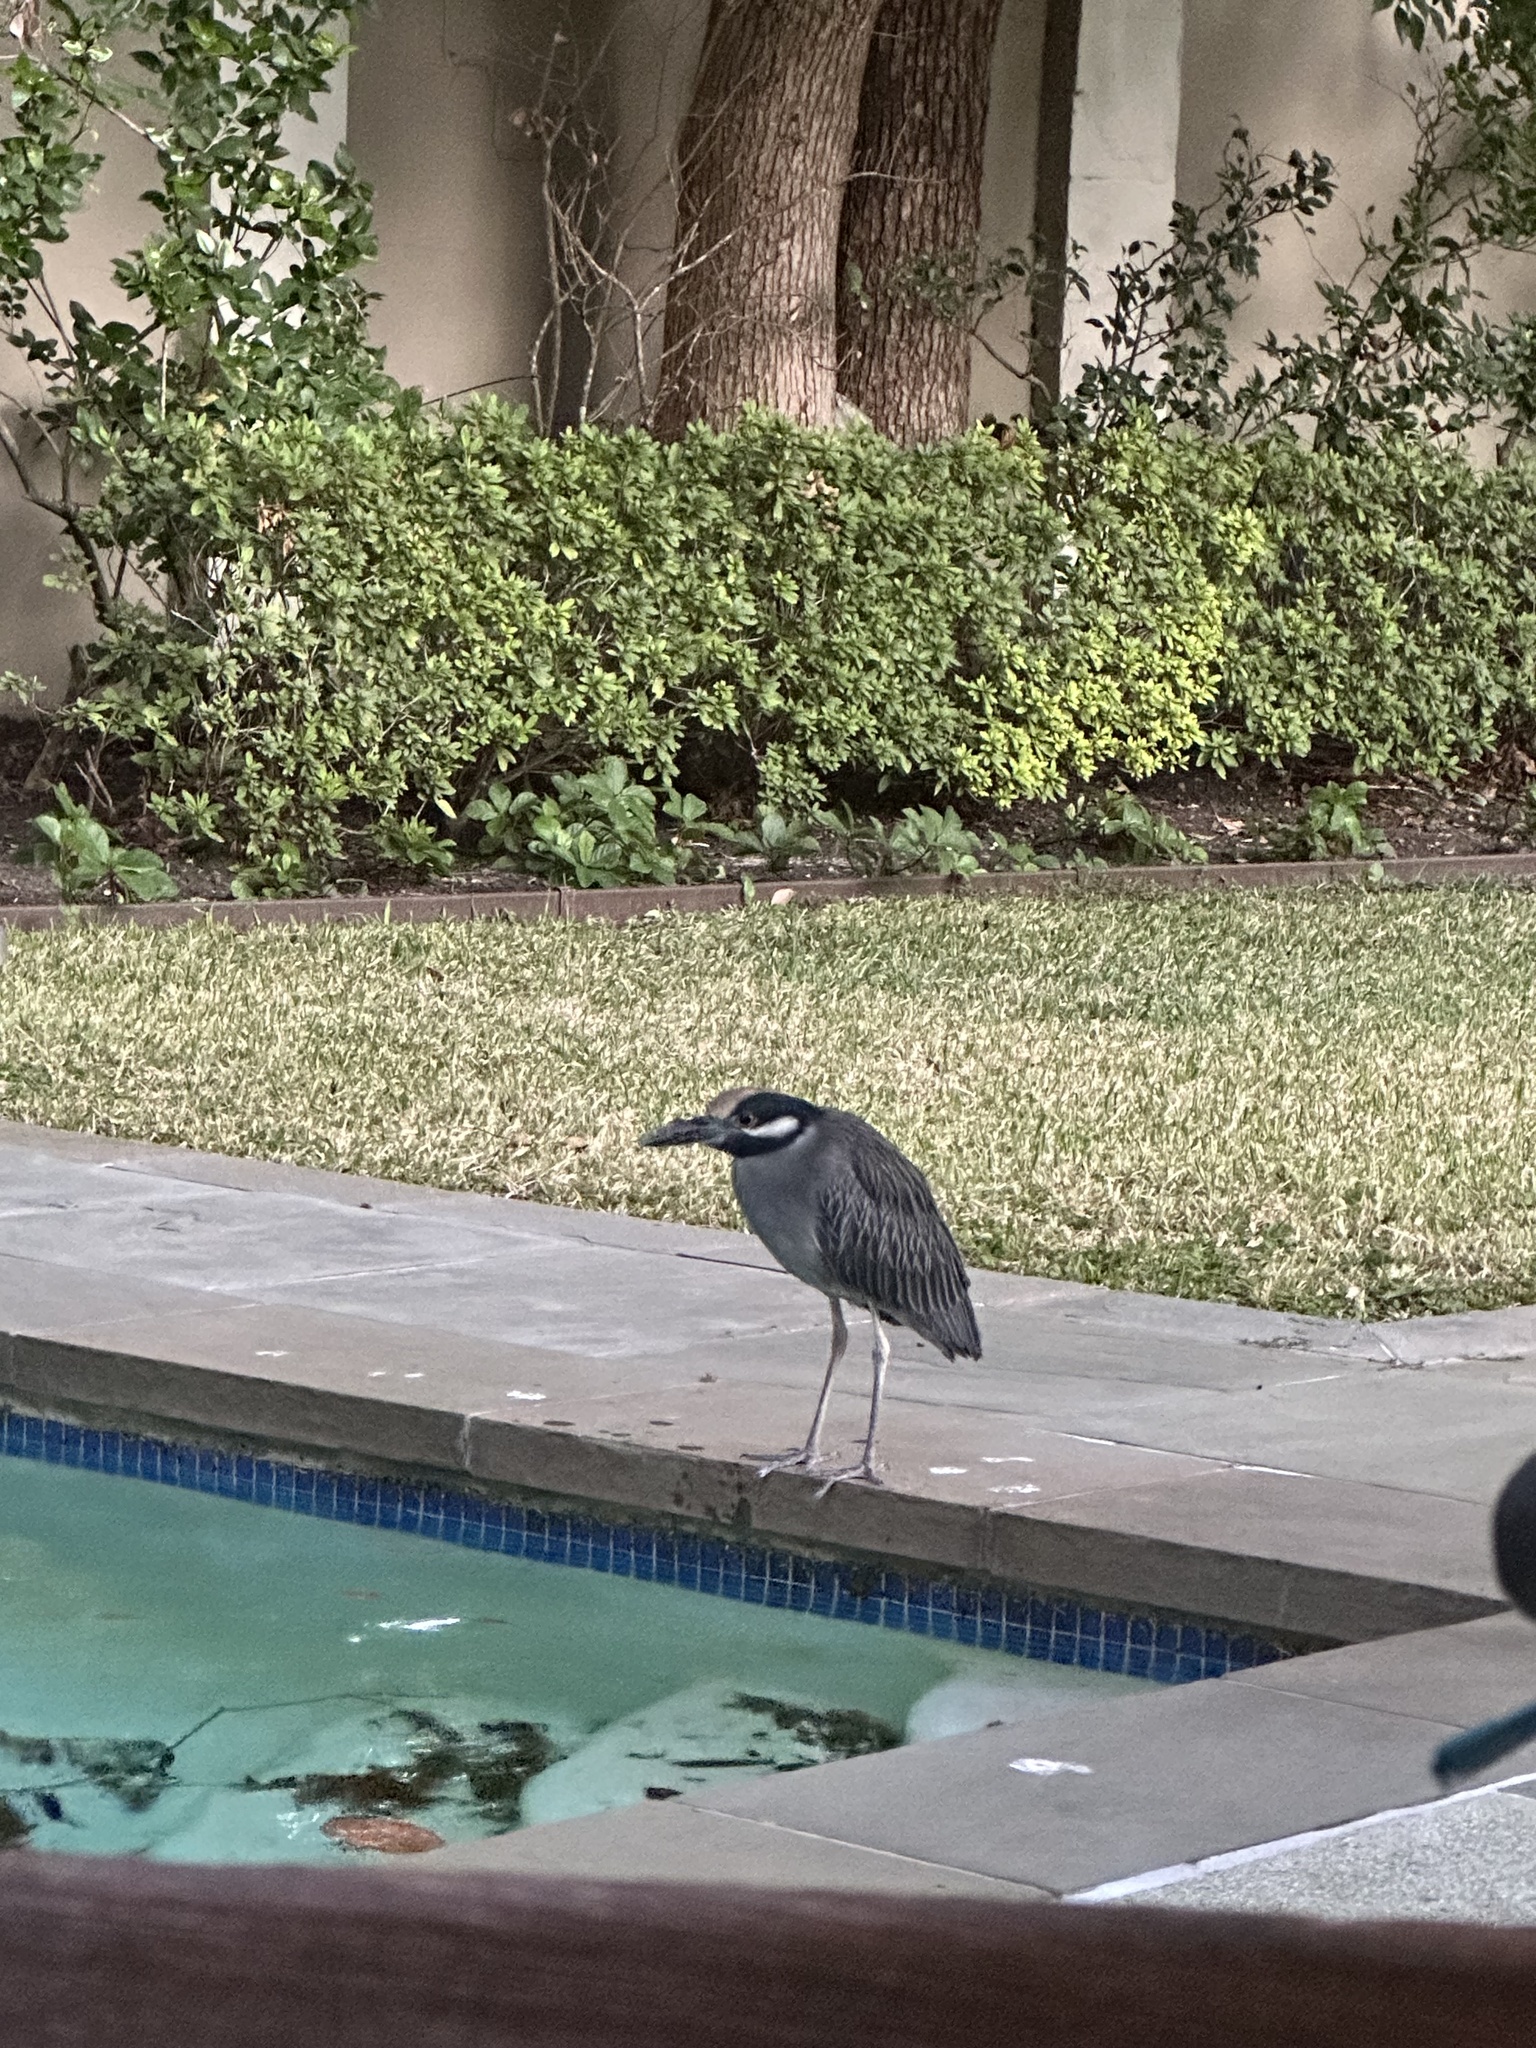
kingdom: Animalia
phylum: Chordata
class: Aves
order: Pelecaniformes
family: Ardeidae
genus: Nyctanassa
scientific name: Nyctanassa violacea
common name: Yellow-crowned night heron
